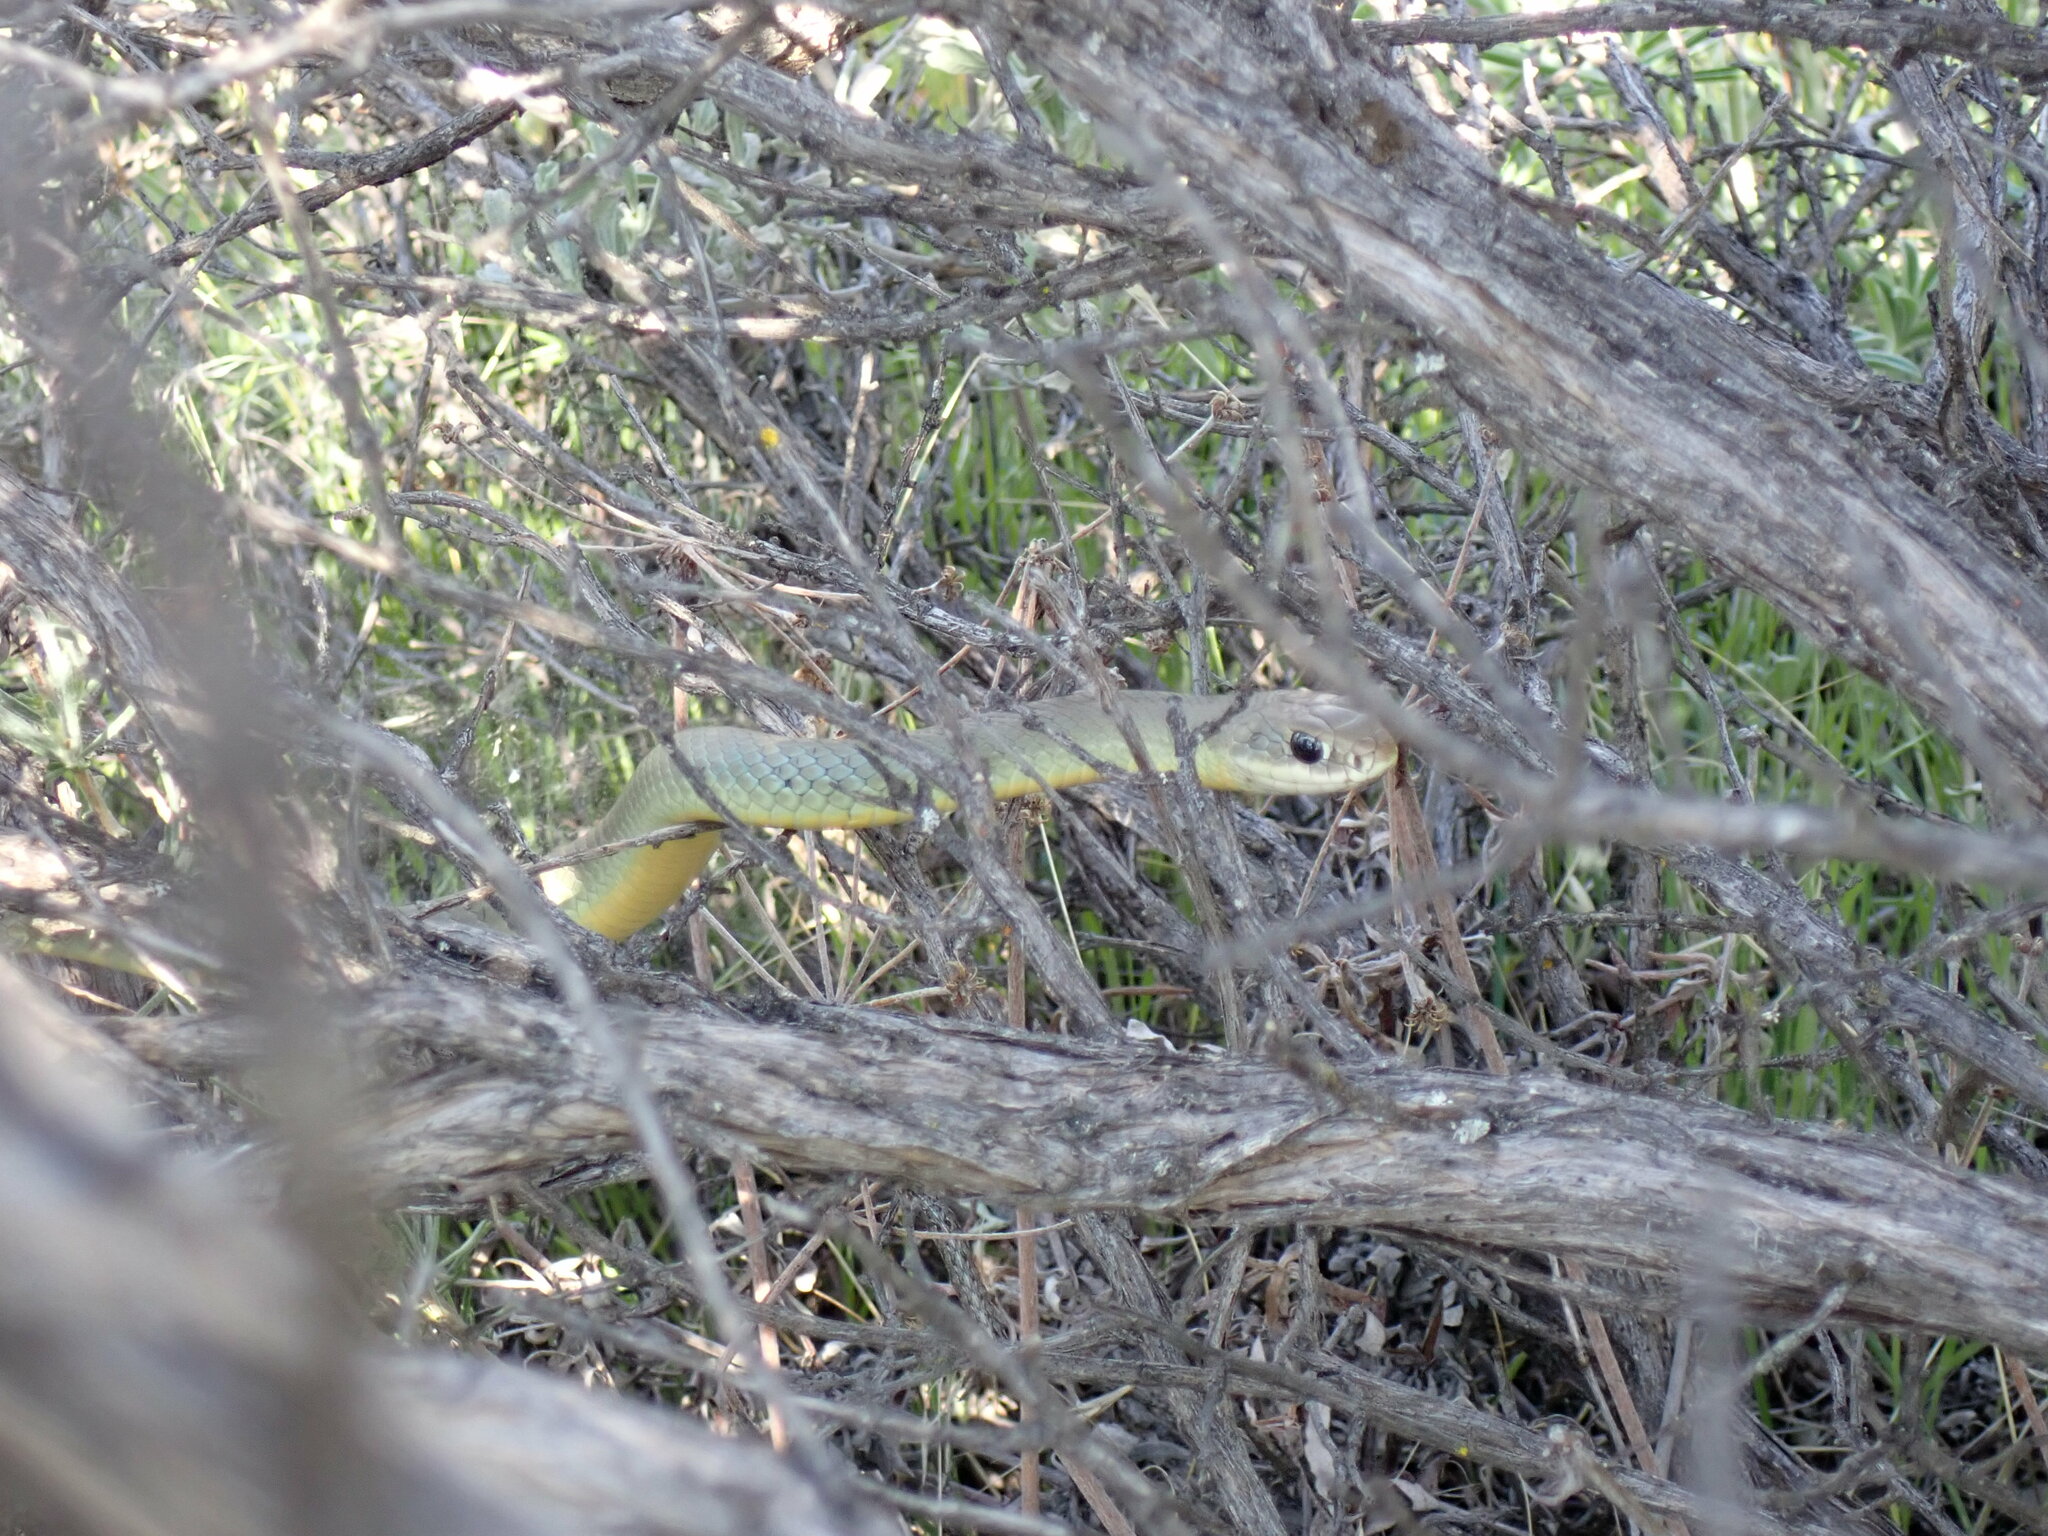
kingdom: Animalia
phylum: Chordata
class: Squamata
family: Colubridae
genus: Coluber
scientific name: Coluber constrictor
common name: Eastern racer
